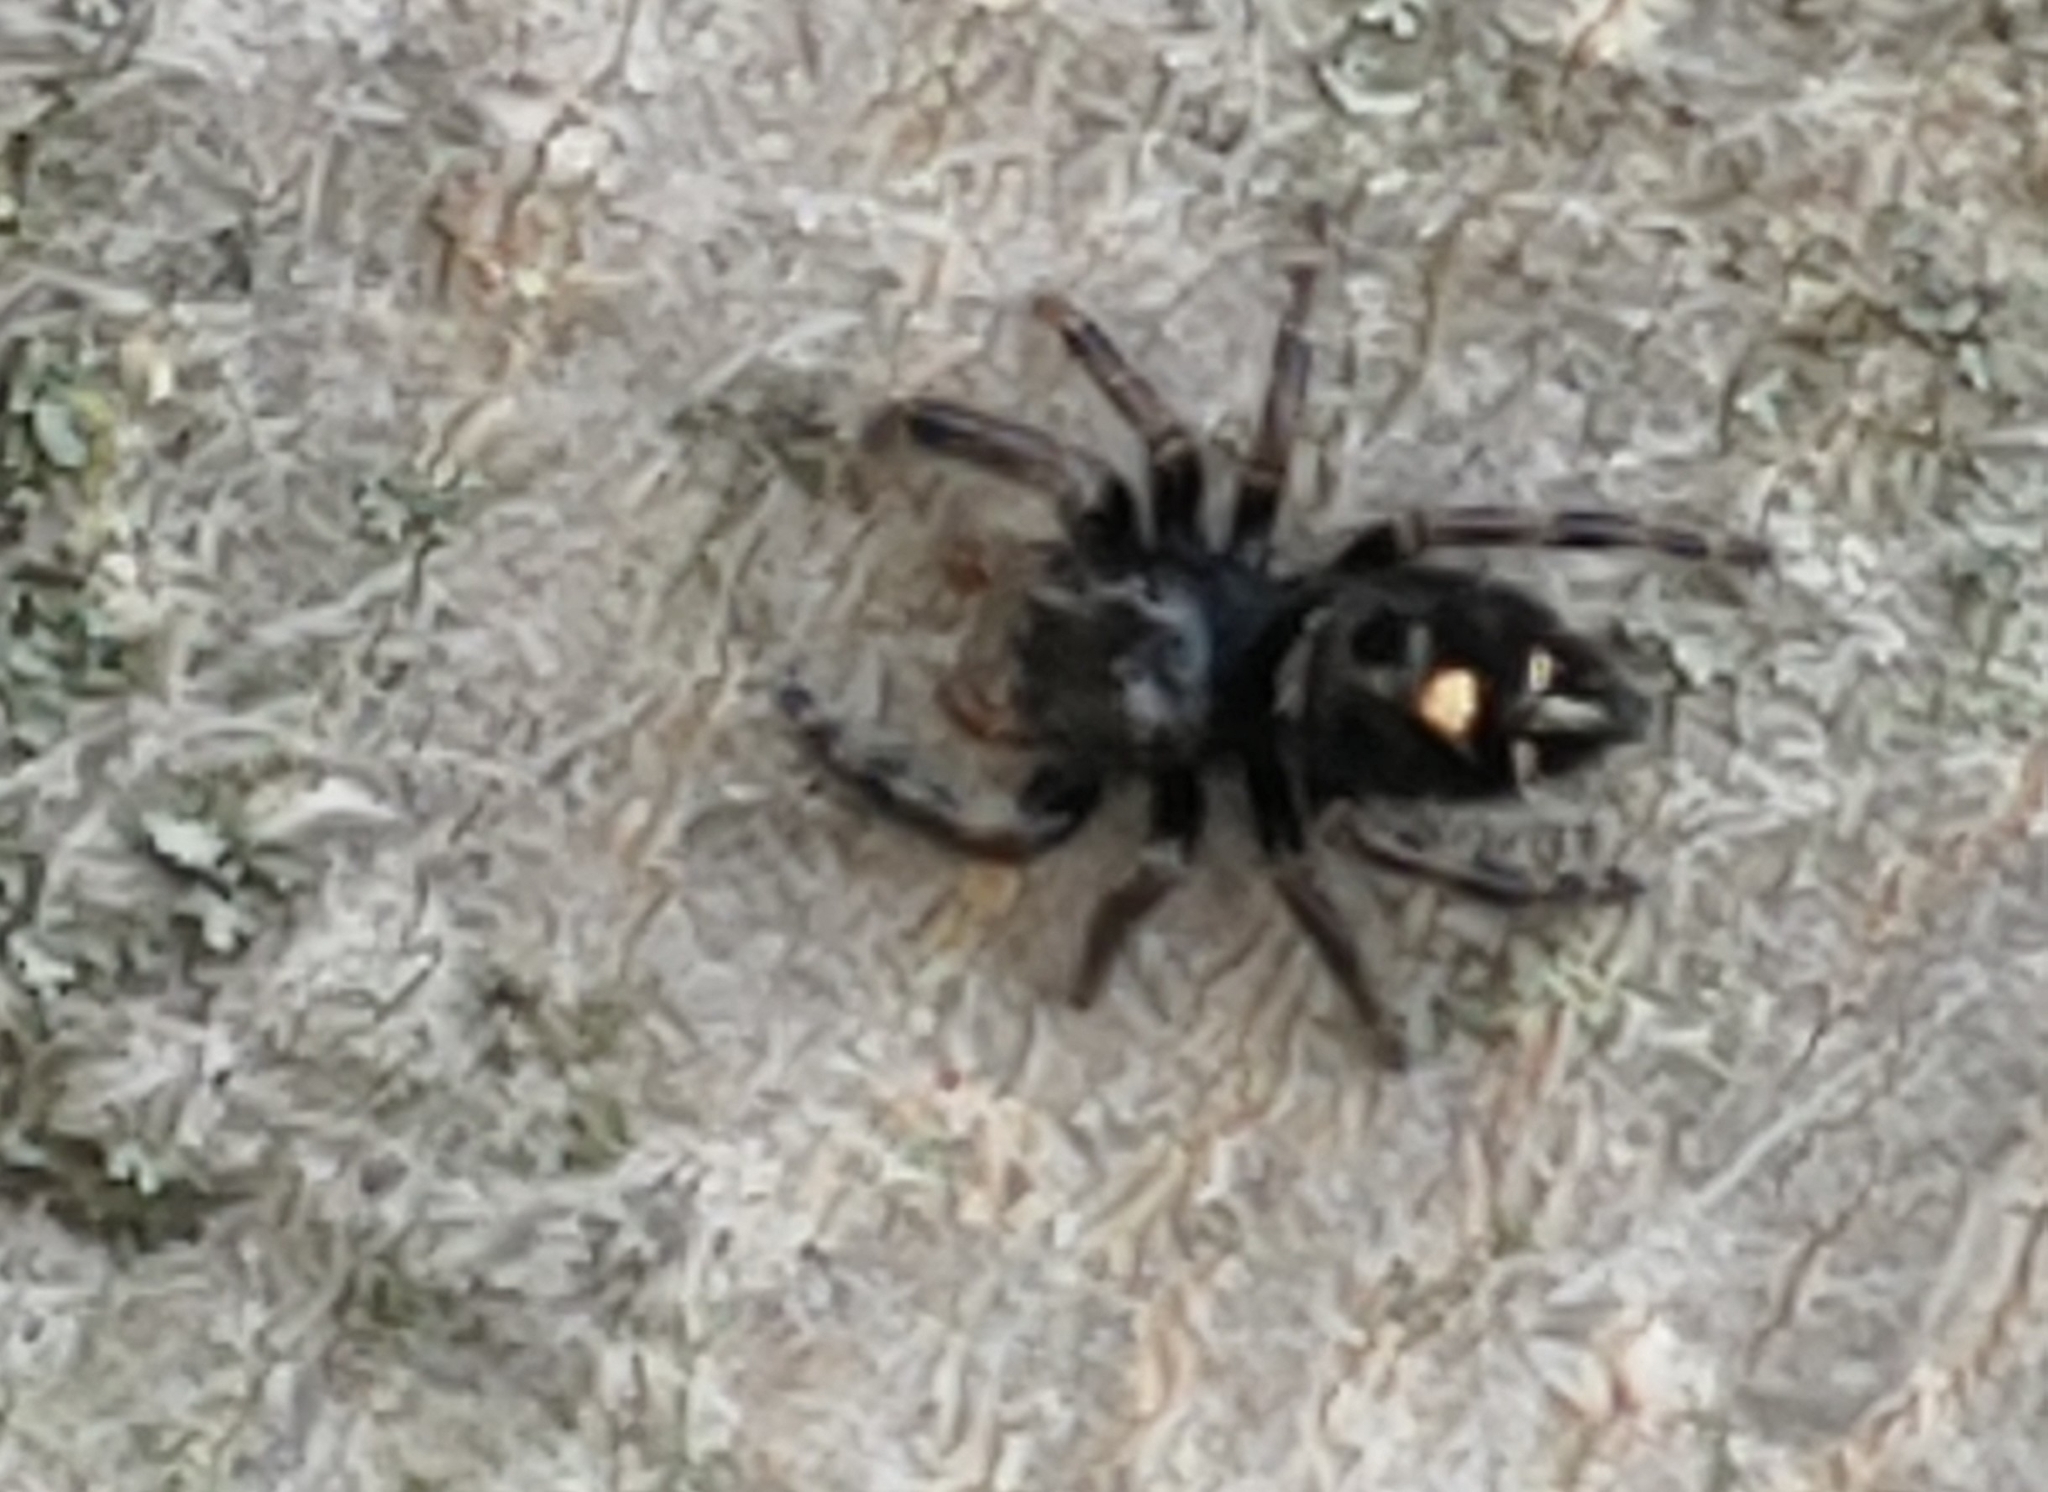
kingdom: Animalia
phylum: Arthropoda
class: Arachnida
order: Araneae
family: Salticidae
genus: Phidippus
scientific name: Phidippus audax
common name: Bold jumper
